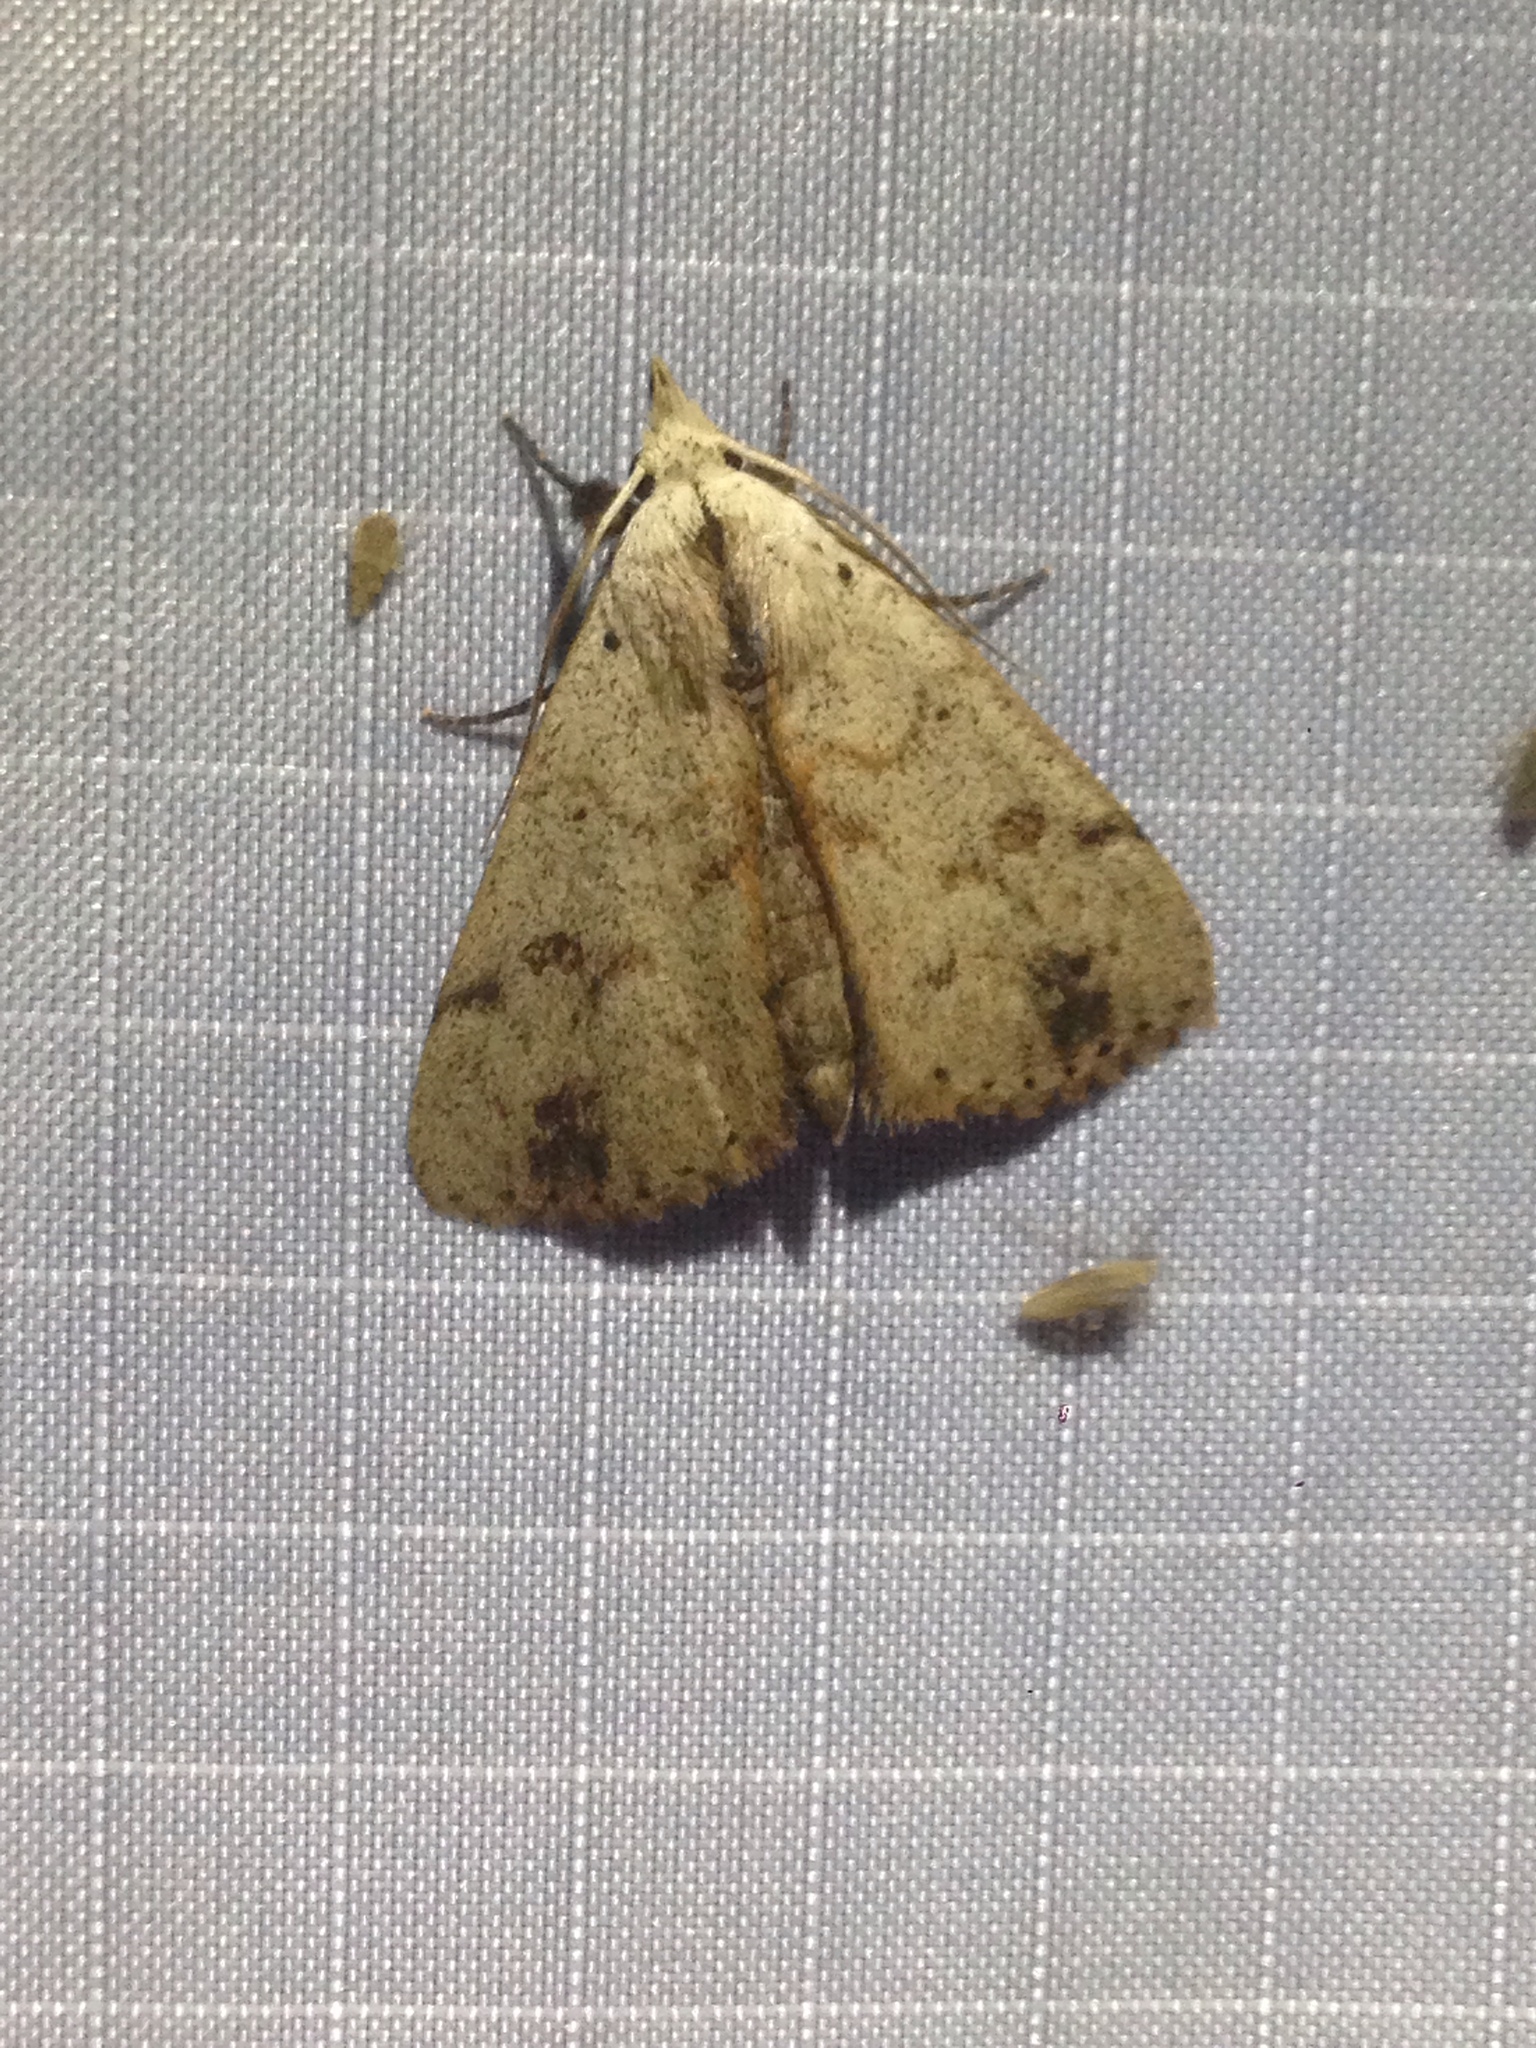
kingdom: Animalia
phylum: Arthropoda
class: Insecta
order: Lepidoptera
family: Erebidae
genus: Scolecocampa
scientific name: Scolecocampa liburna
